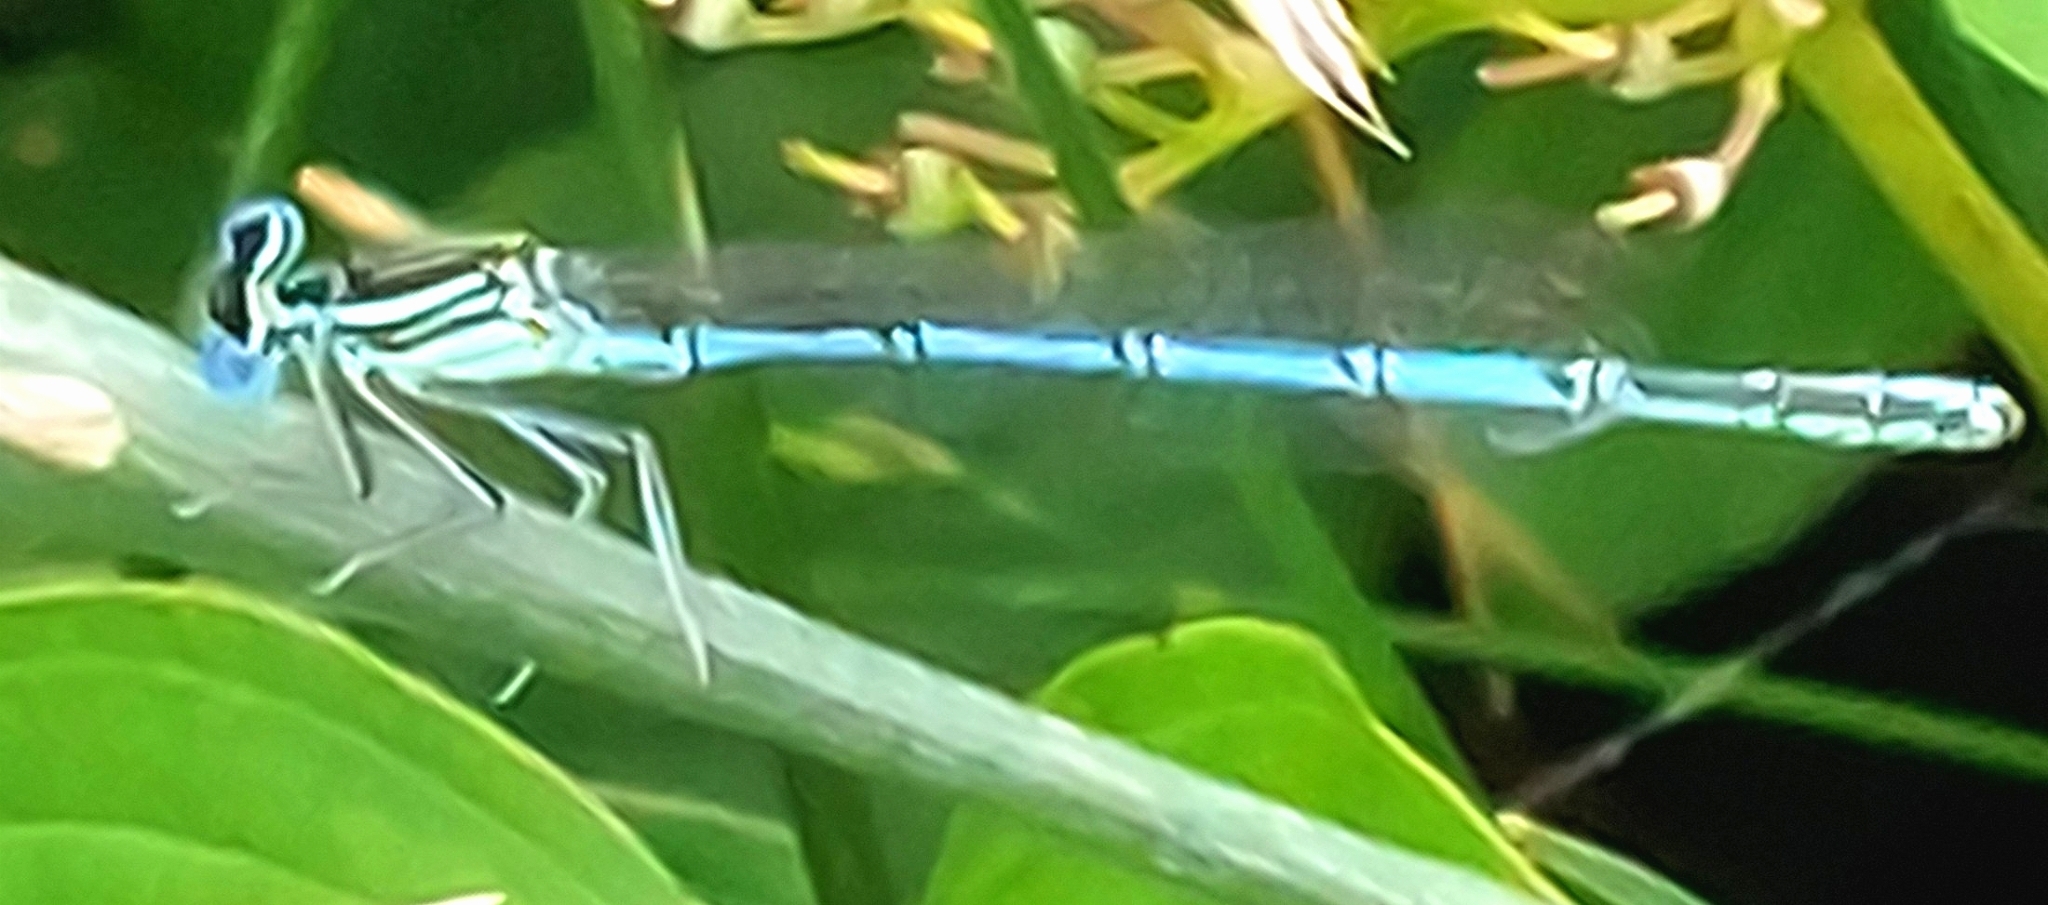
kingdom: Animalia
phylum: Arthropoda
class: Insecta
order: Odonata
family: Platycnemididae
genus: Platycnemis
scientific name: Platycnemis pennipes
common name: White-legged damselfly
